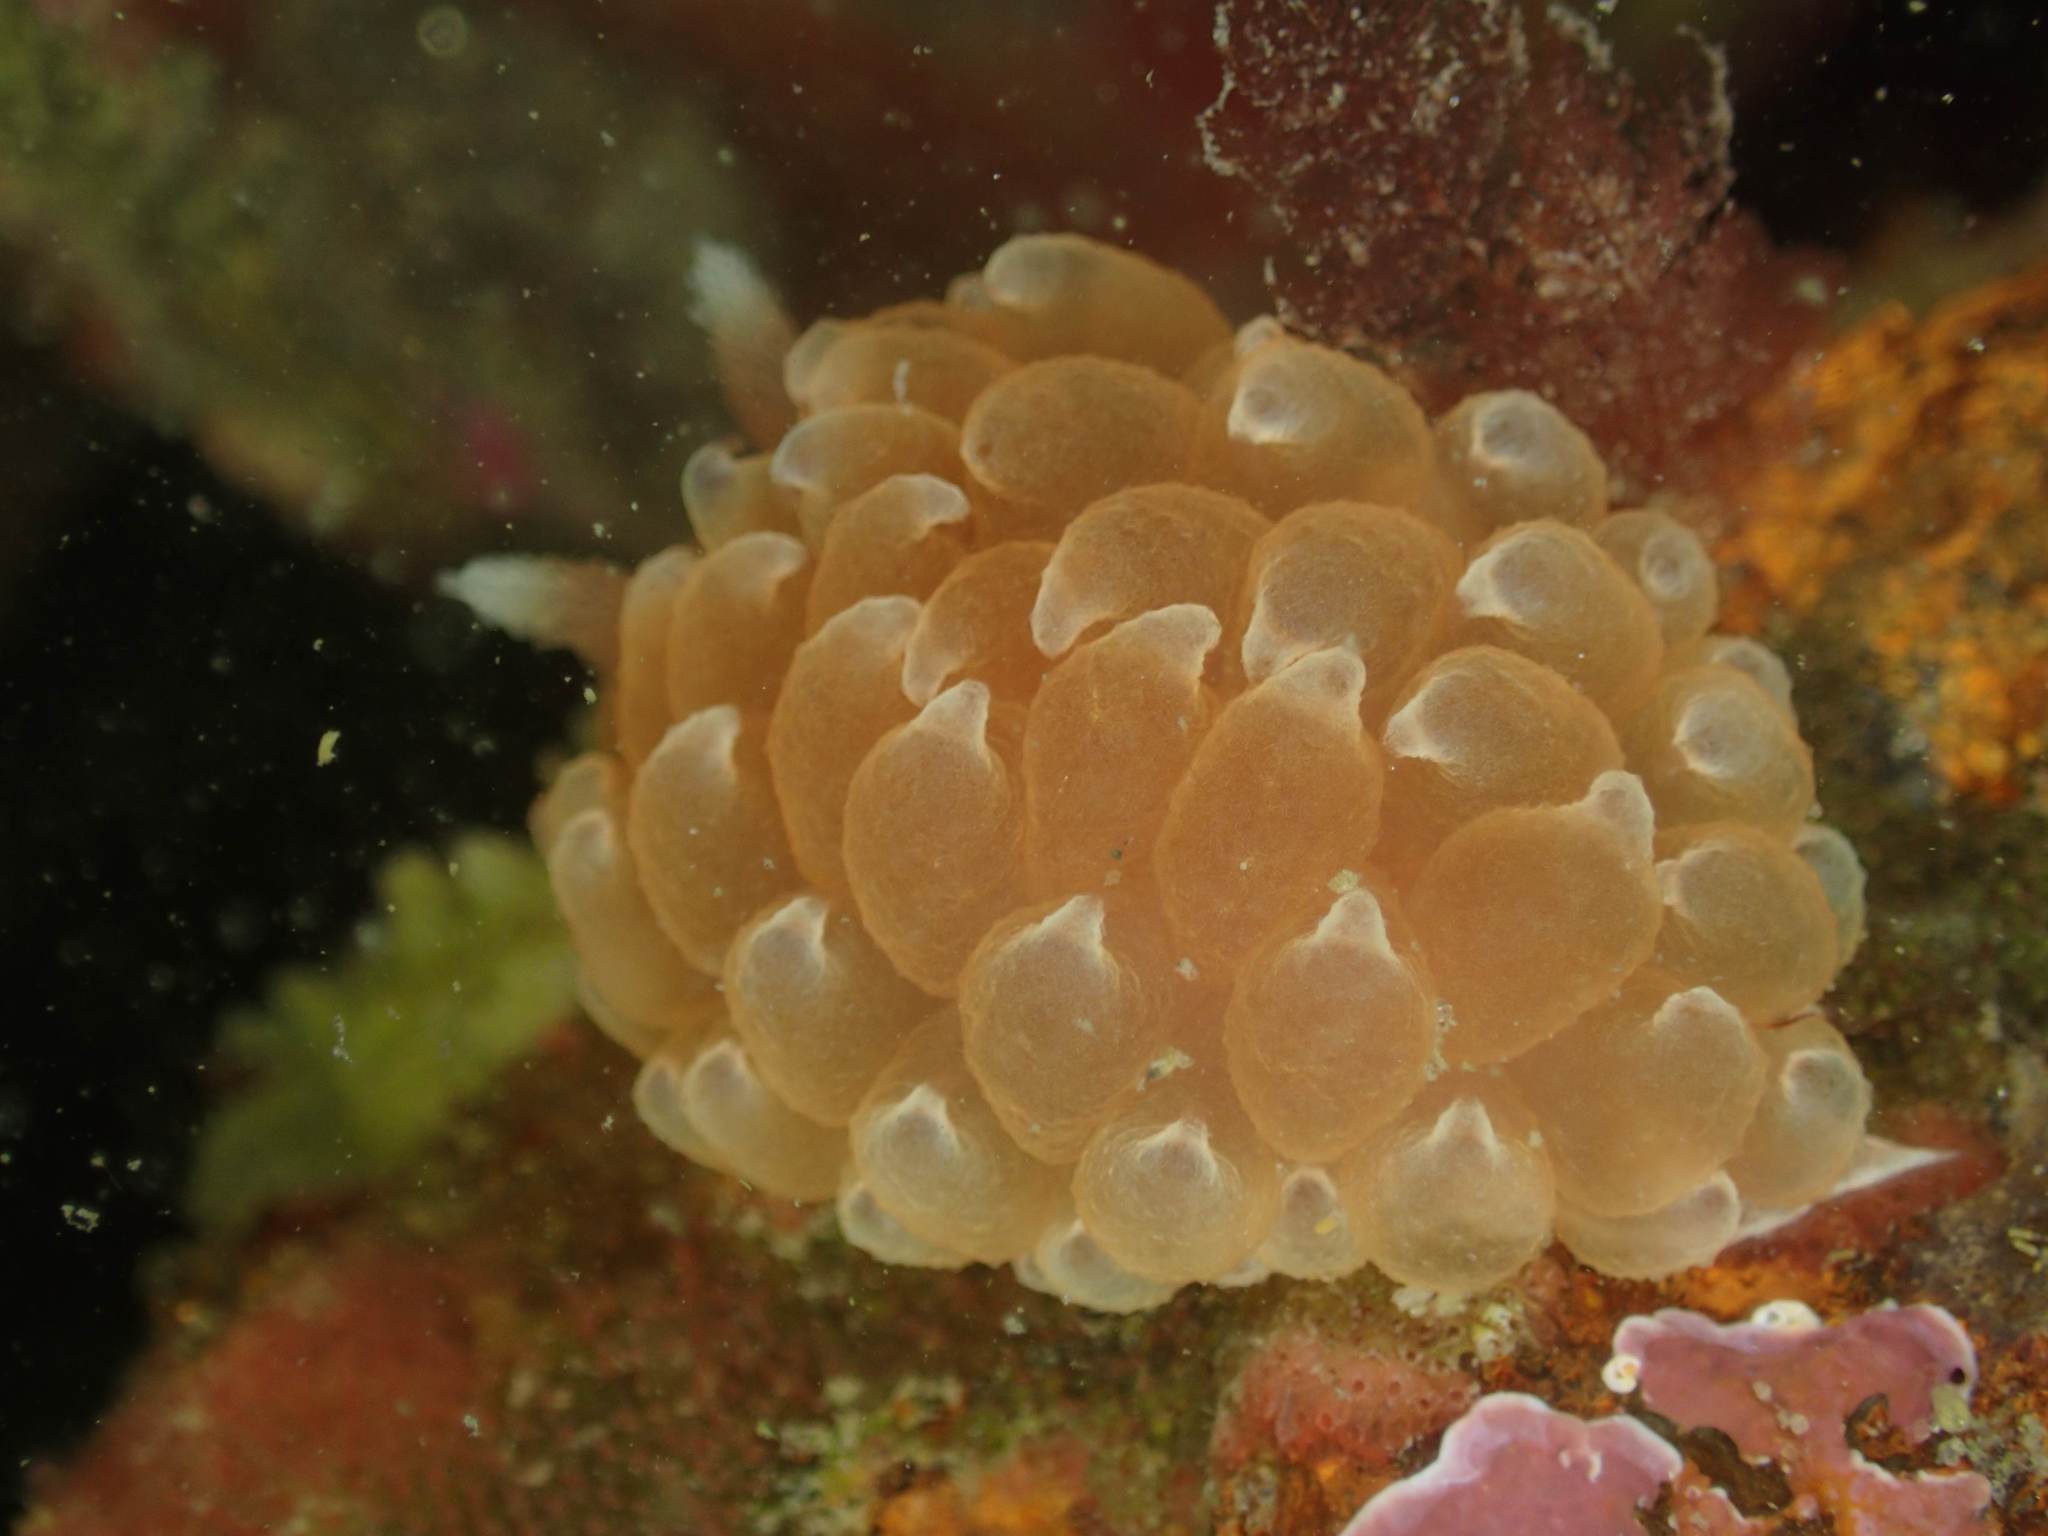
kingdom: Animalia
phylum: Mollusca
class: Gastropoda
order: Nudibranchia
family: Janolidae
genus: Galeojanolus
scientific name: Galeojanolus ionnae
